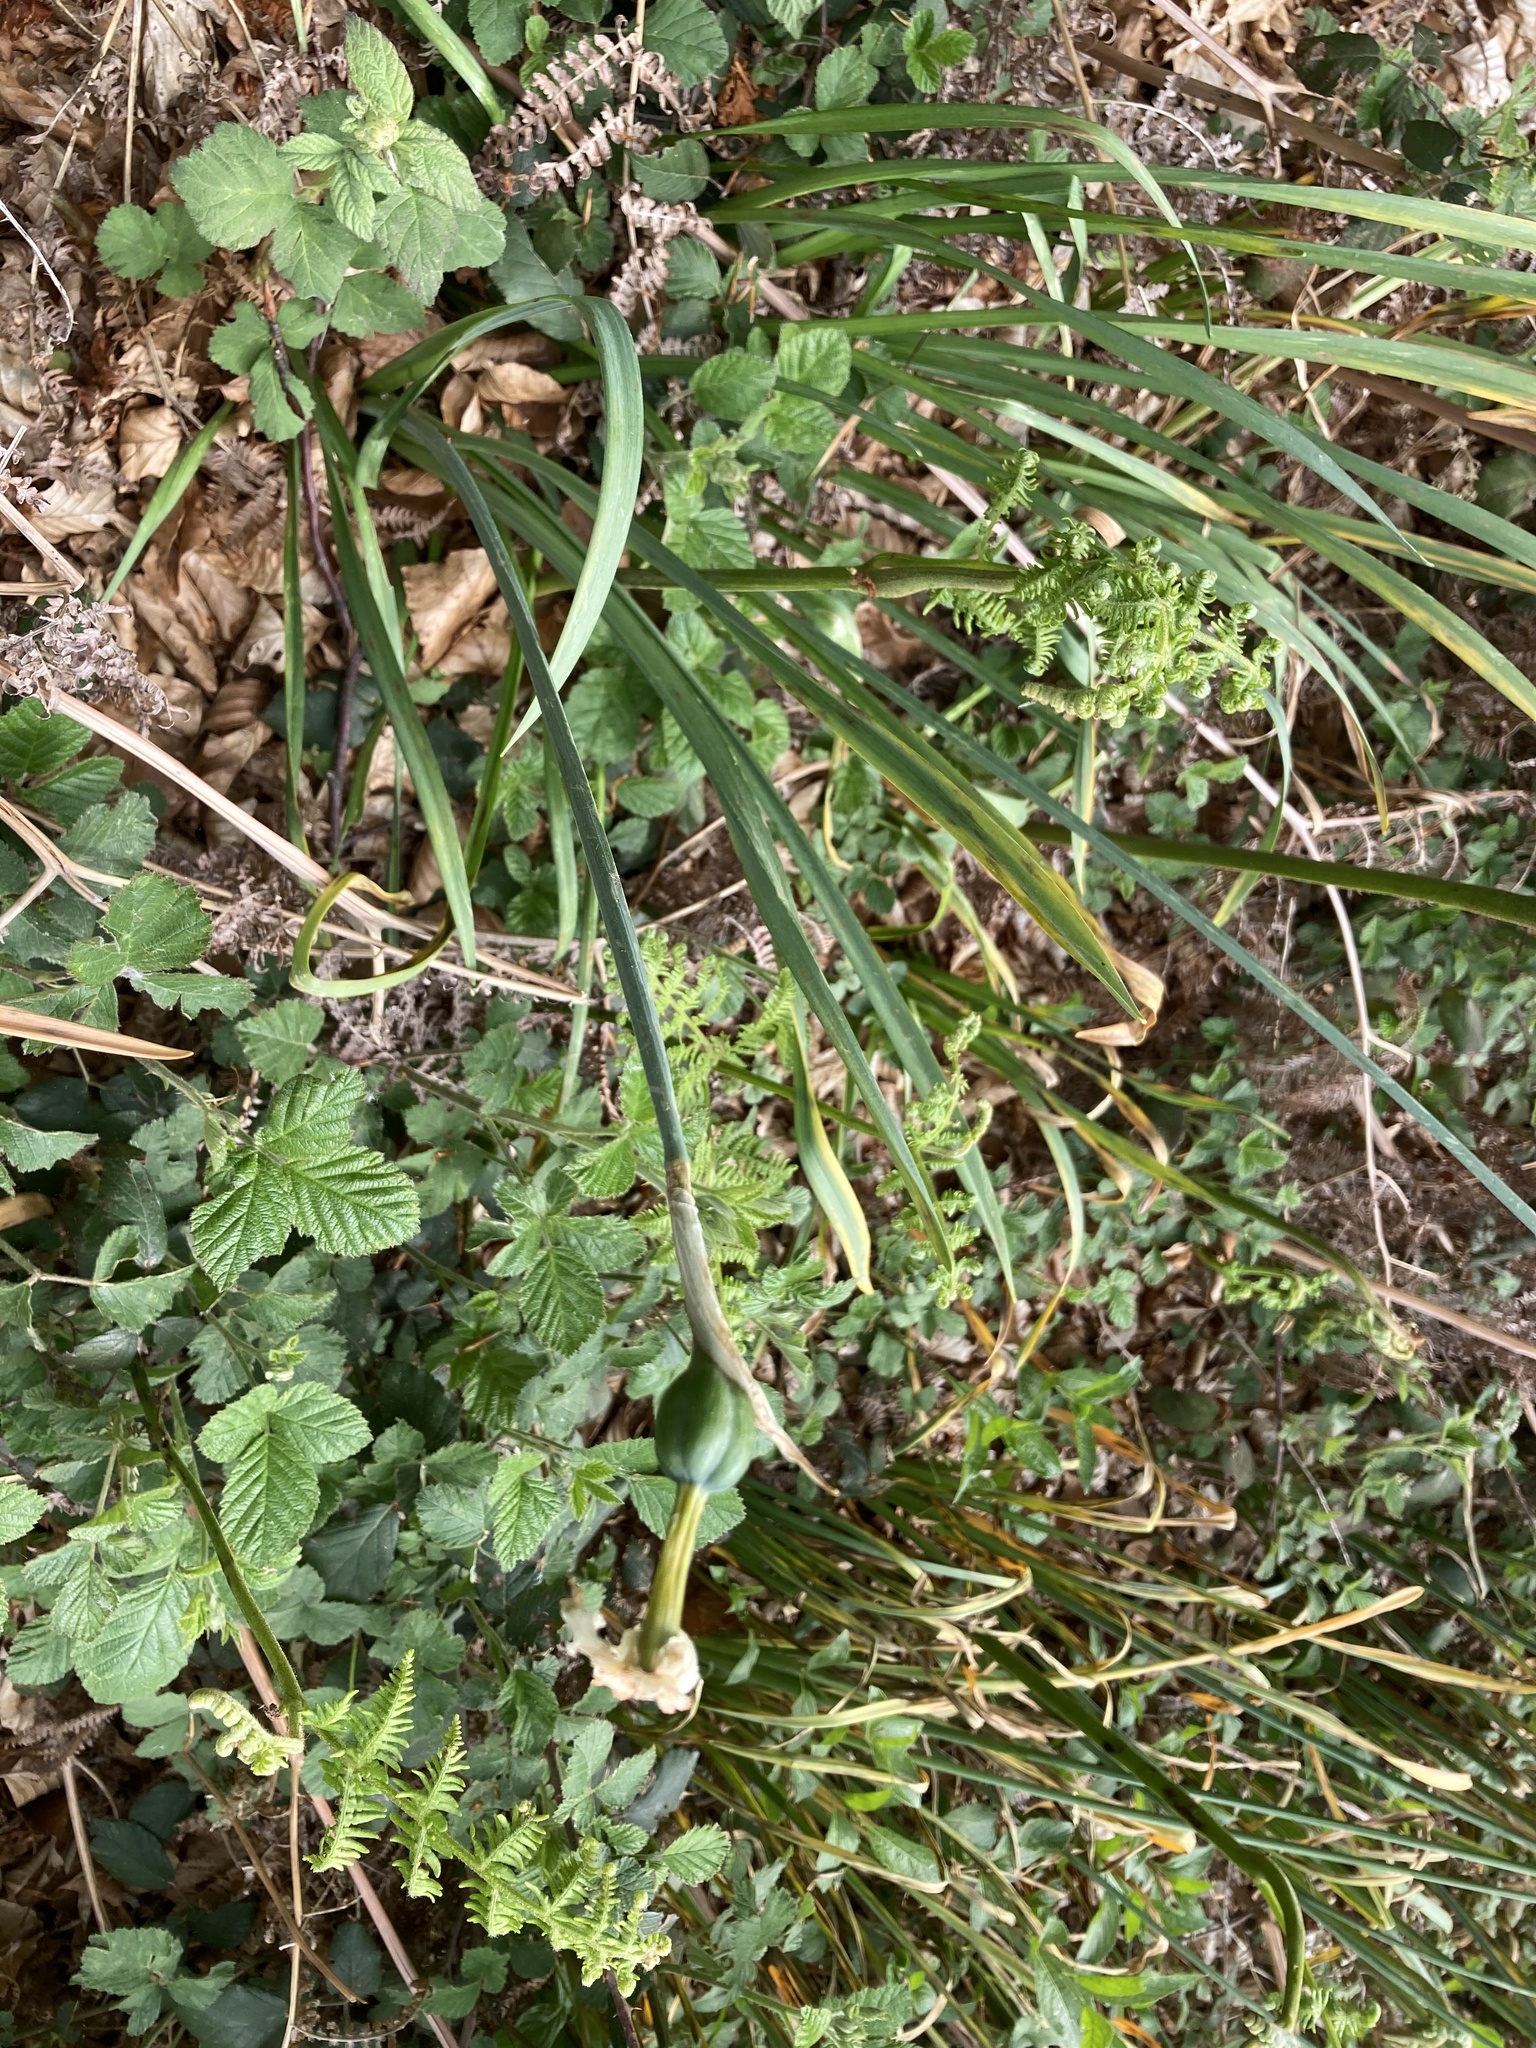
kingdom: Plantae
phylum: Tracheophyta
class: Liliopsida
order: Asparagales
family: Amaryllidaceae
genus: Narcissus
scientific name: Narcissus poeticus
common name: Pheasant's-eye daffodil
